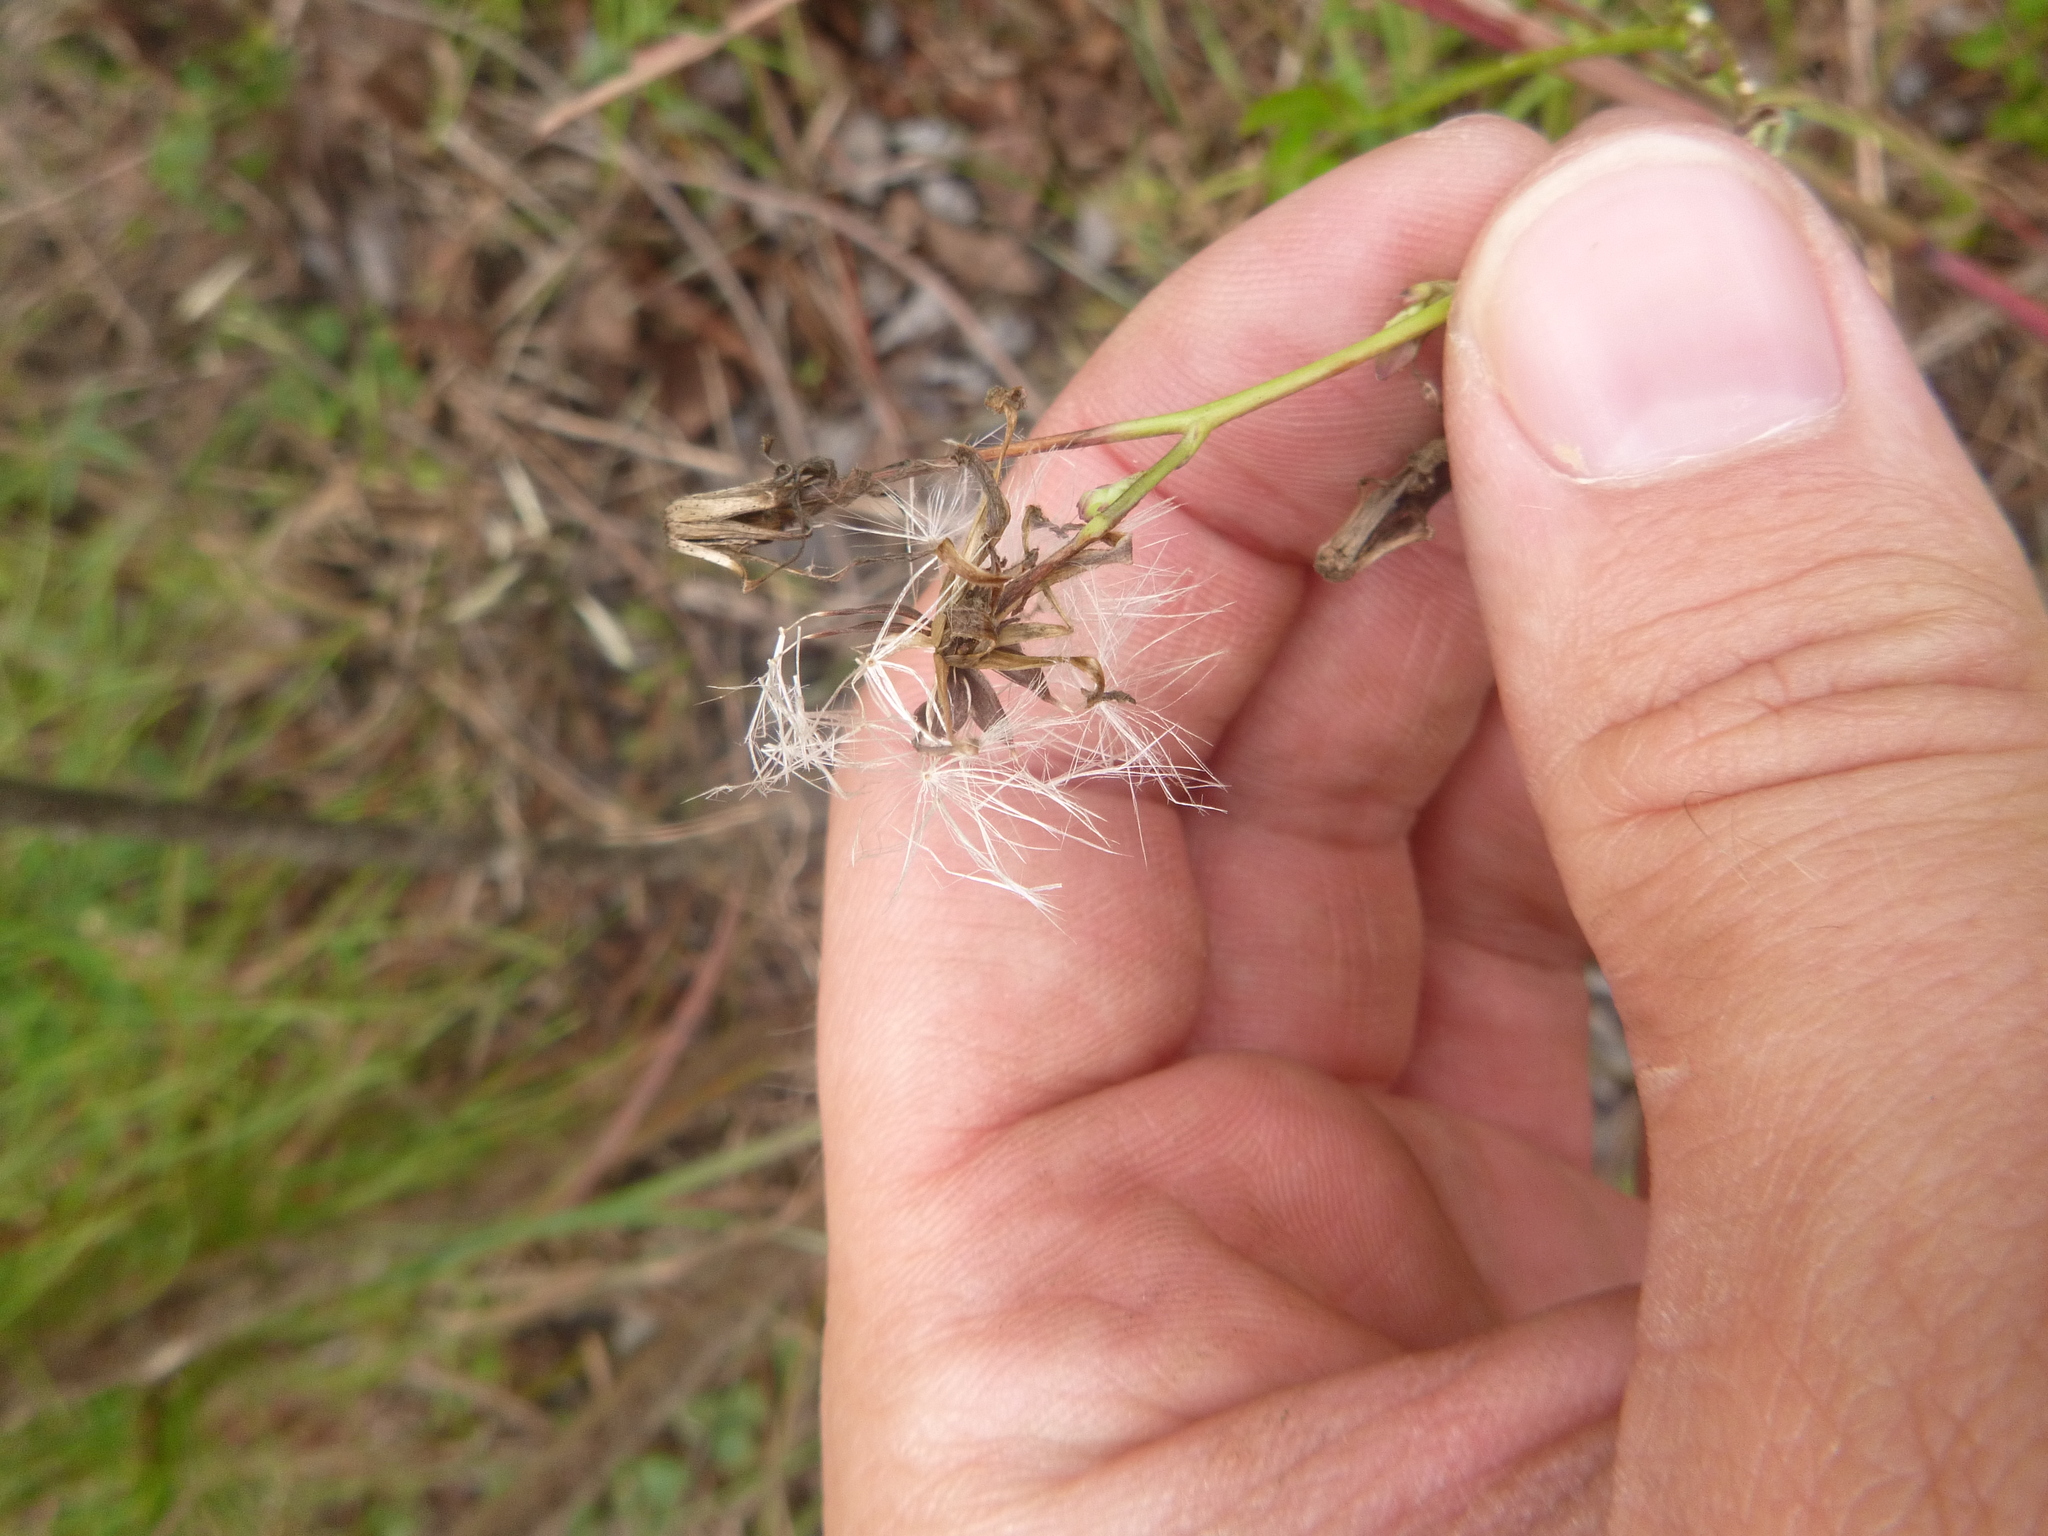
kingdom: Plantae
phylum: Tracheophyta
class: Magnoliopsida
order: Asterales
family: Asteraceae
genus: Lactuca
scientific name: Lactuca graminifolia
